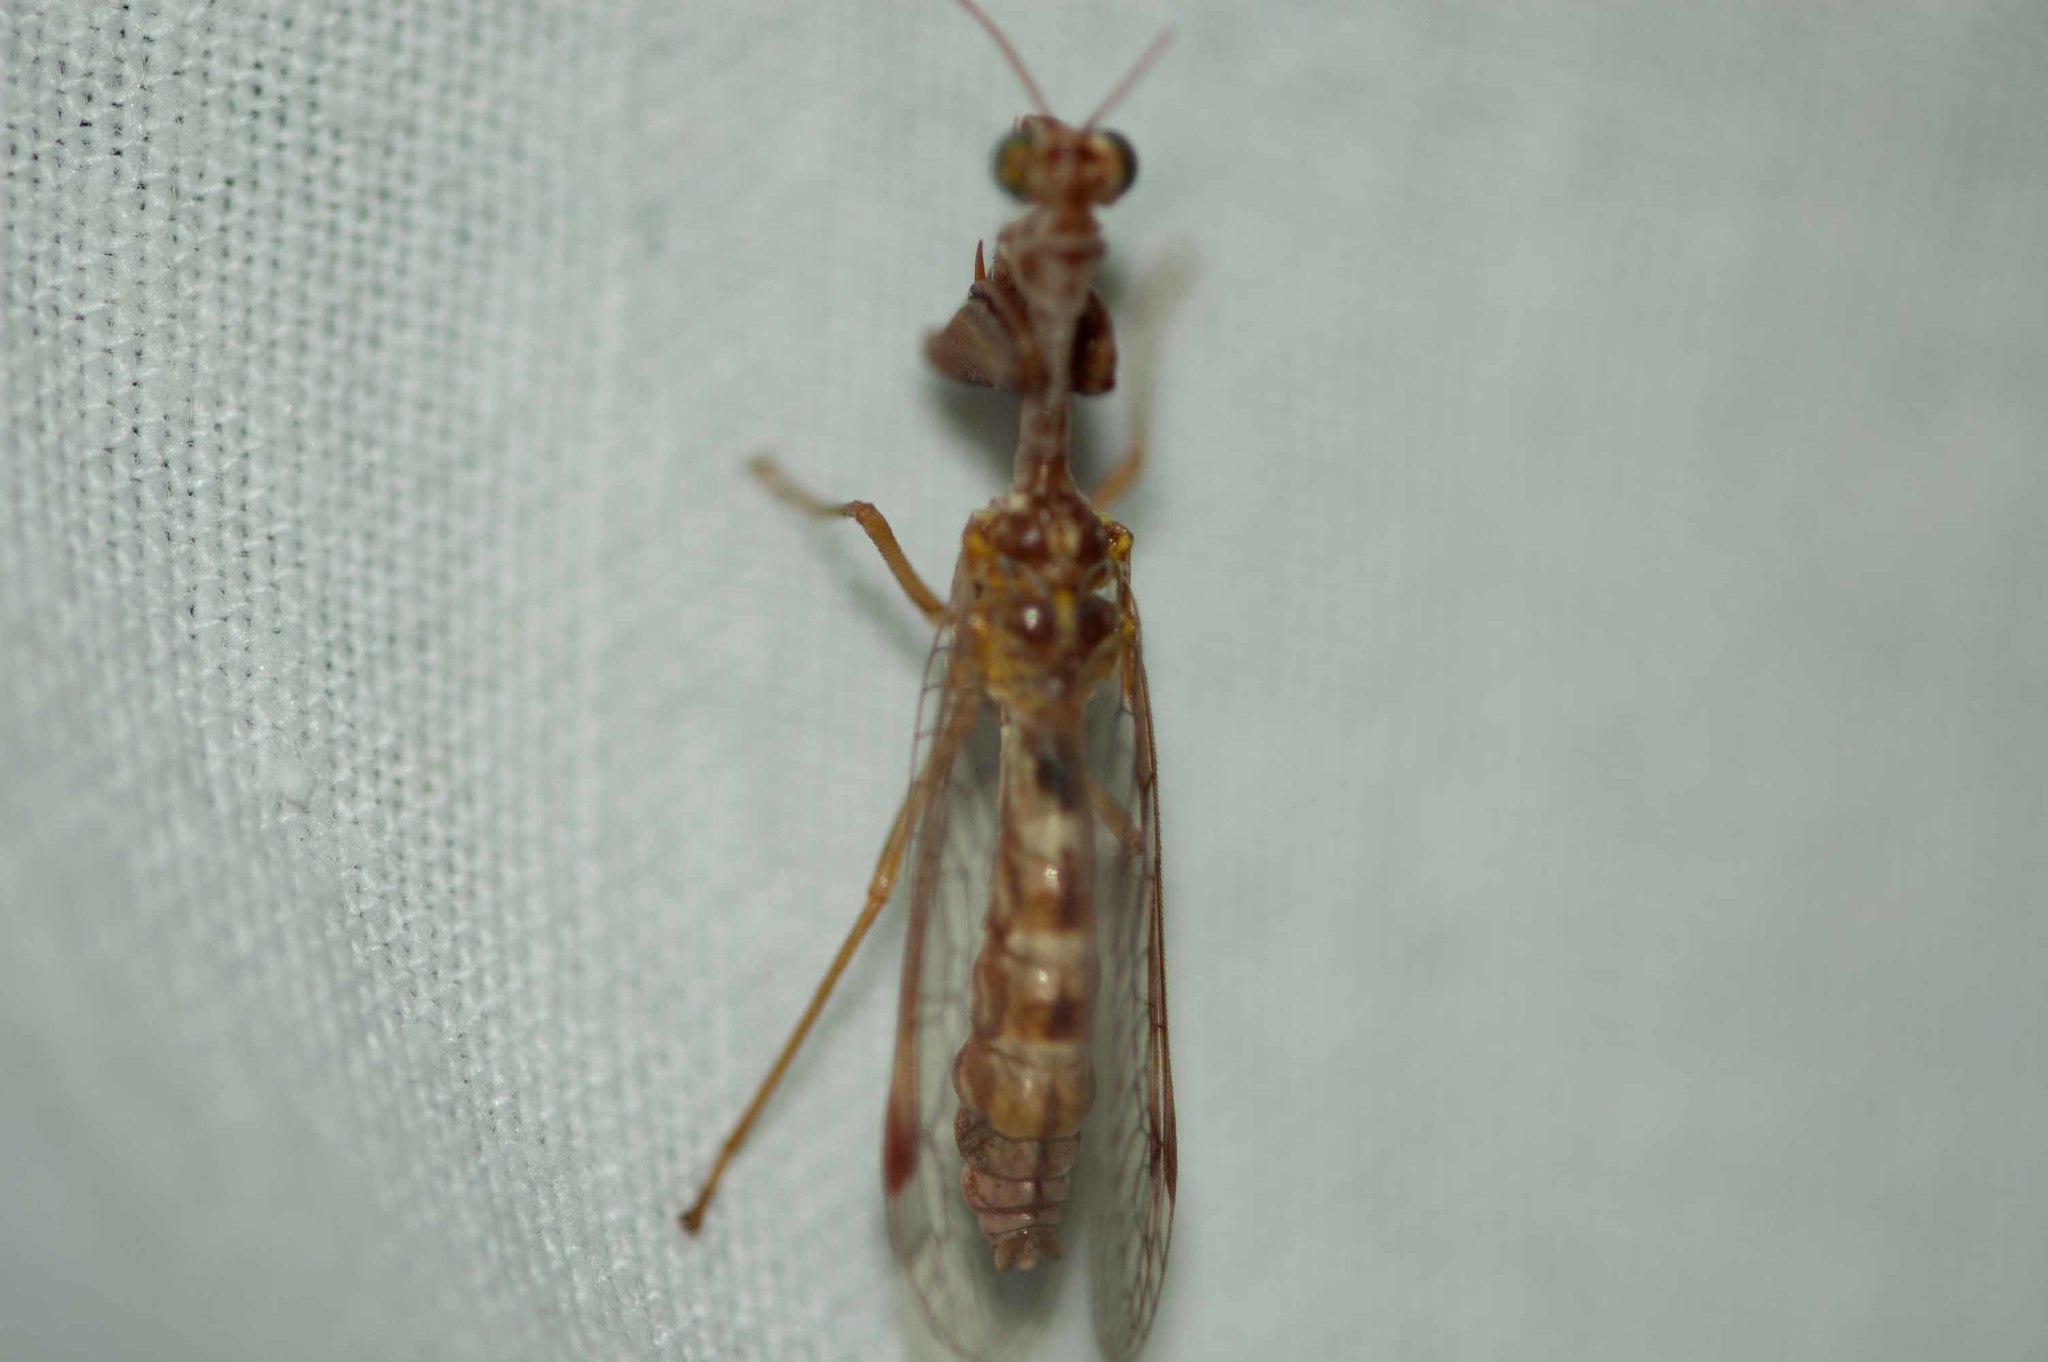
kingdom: Animalia
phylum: Arthropoda
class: Insecta
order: Neuroptera
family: Mantispidae
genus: Mantispa
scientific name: Mantispa styriaca
